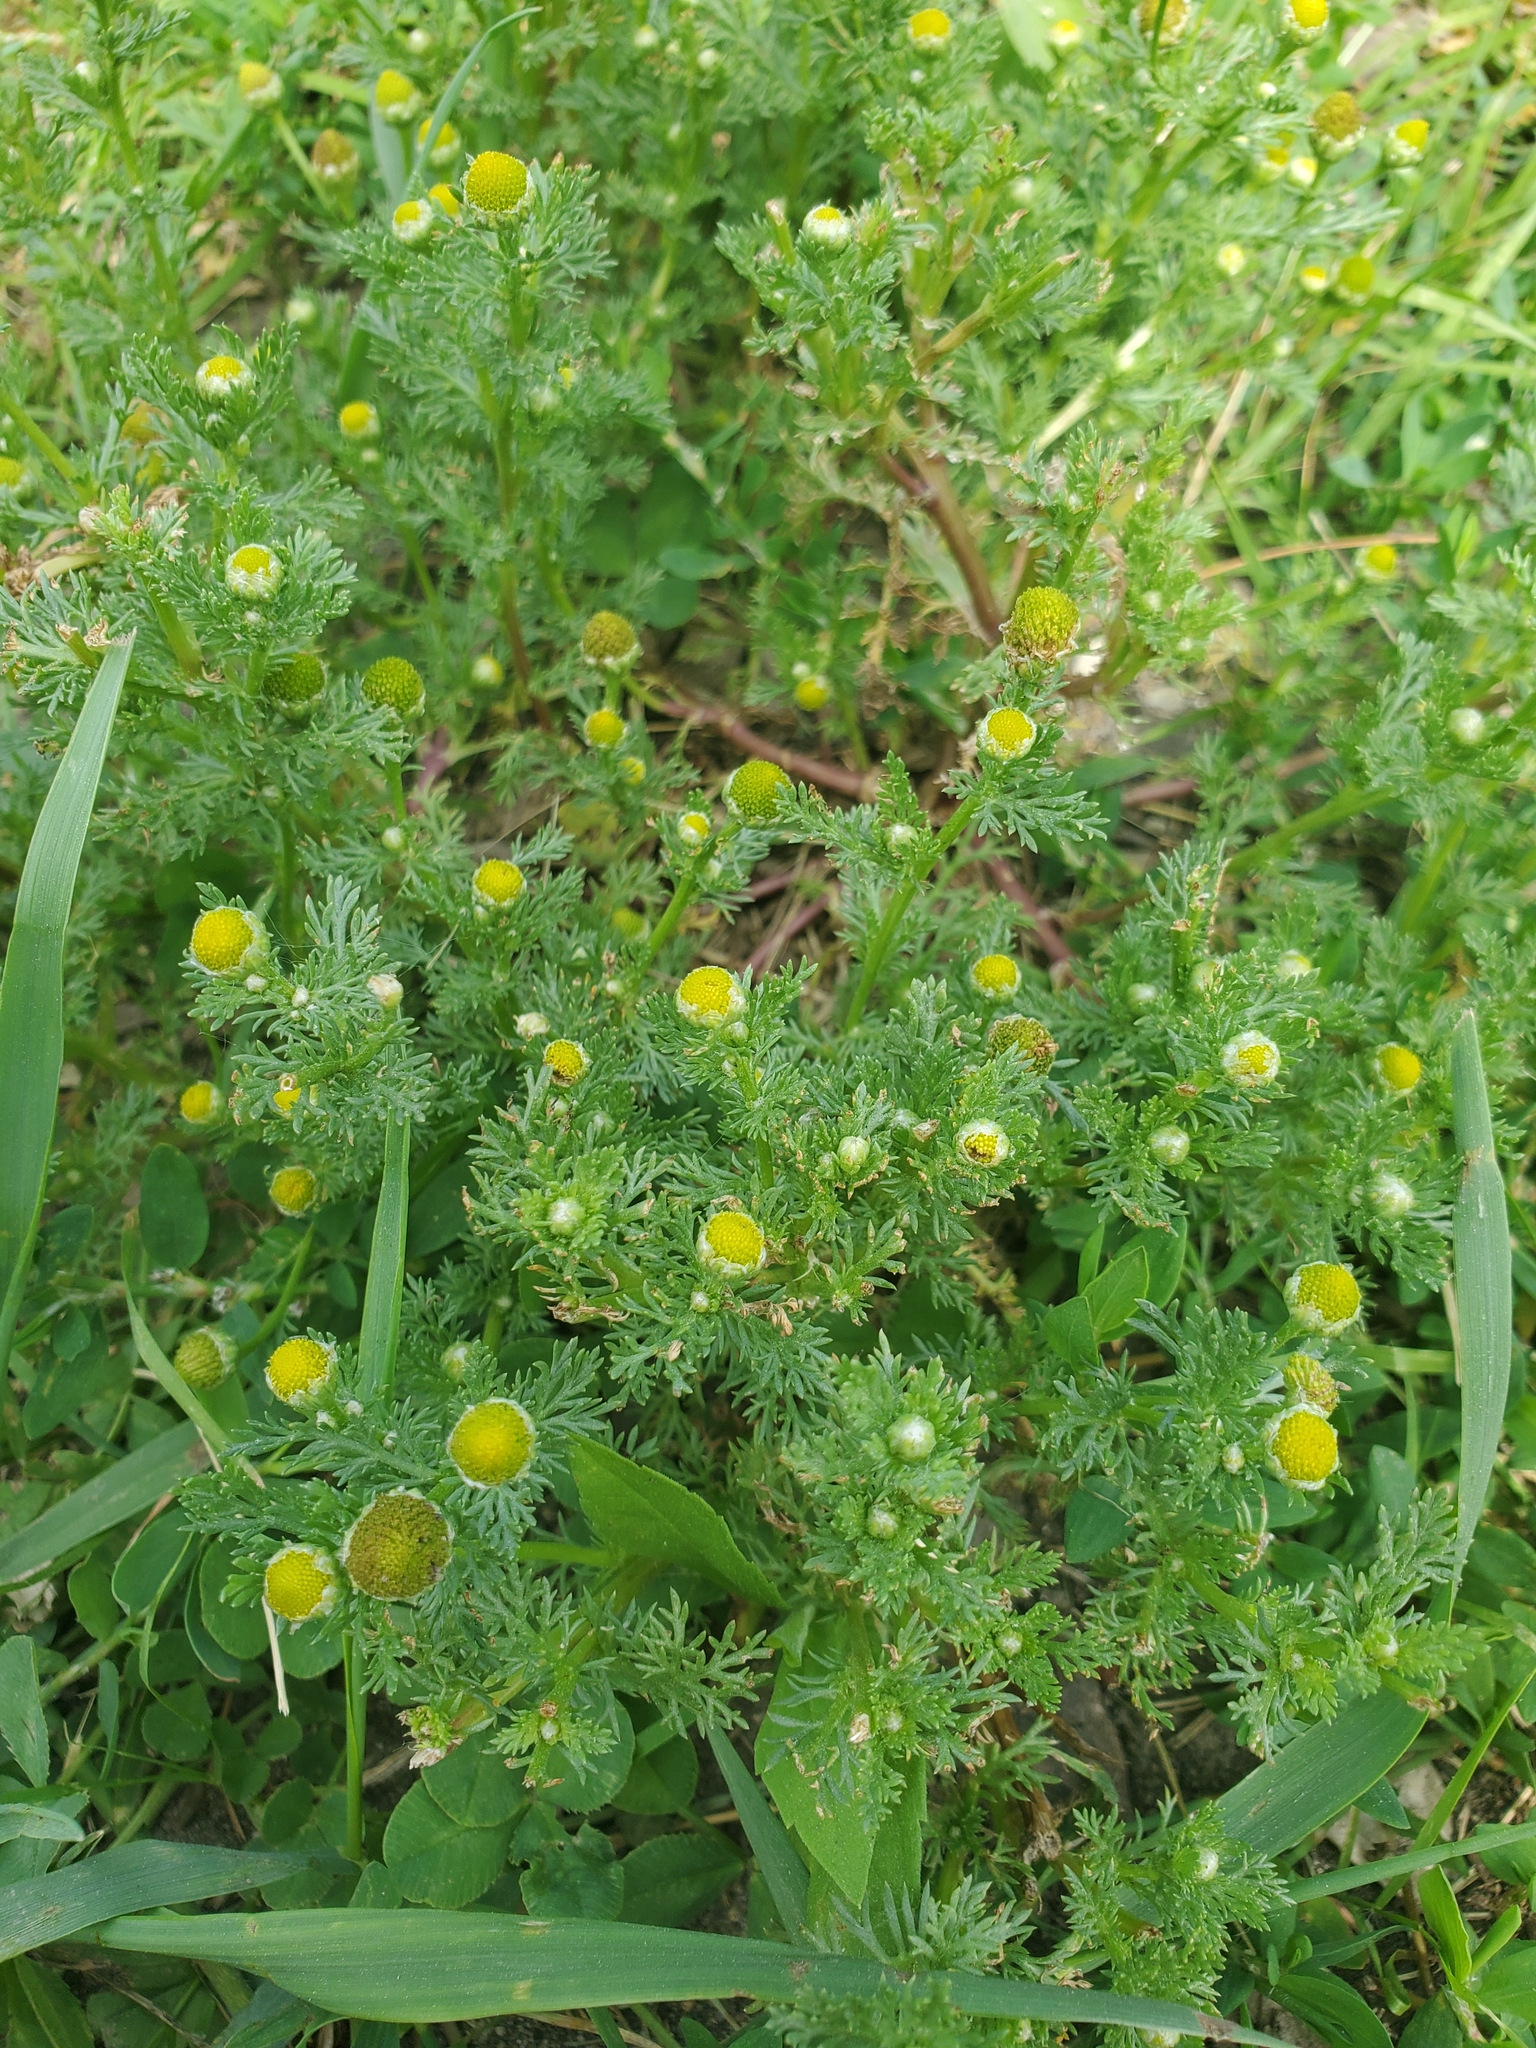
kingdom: Plantae
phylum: Tracheophyta
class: Magnoliopsida
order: Asterales
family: Asteraceae
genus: Matricaria
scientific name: Matricaria discoidea
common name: Disc mayweed
